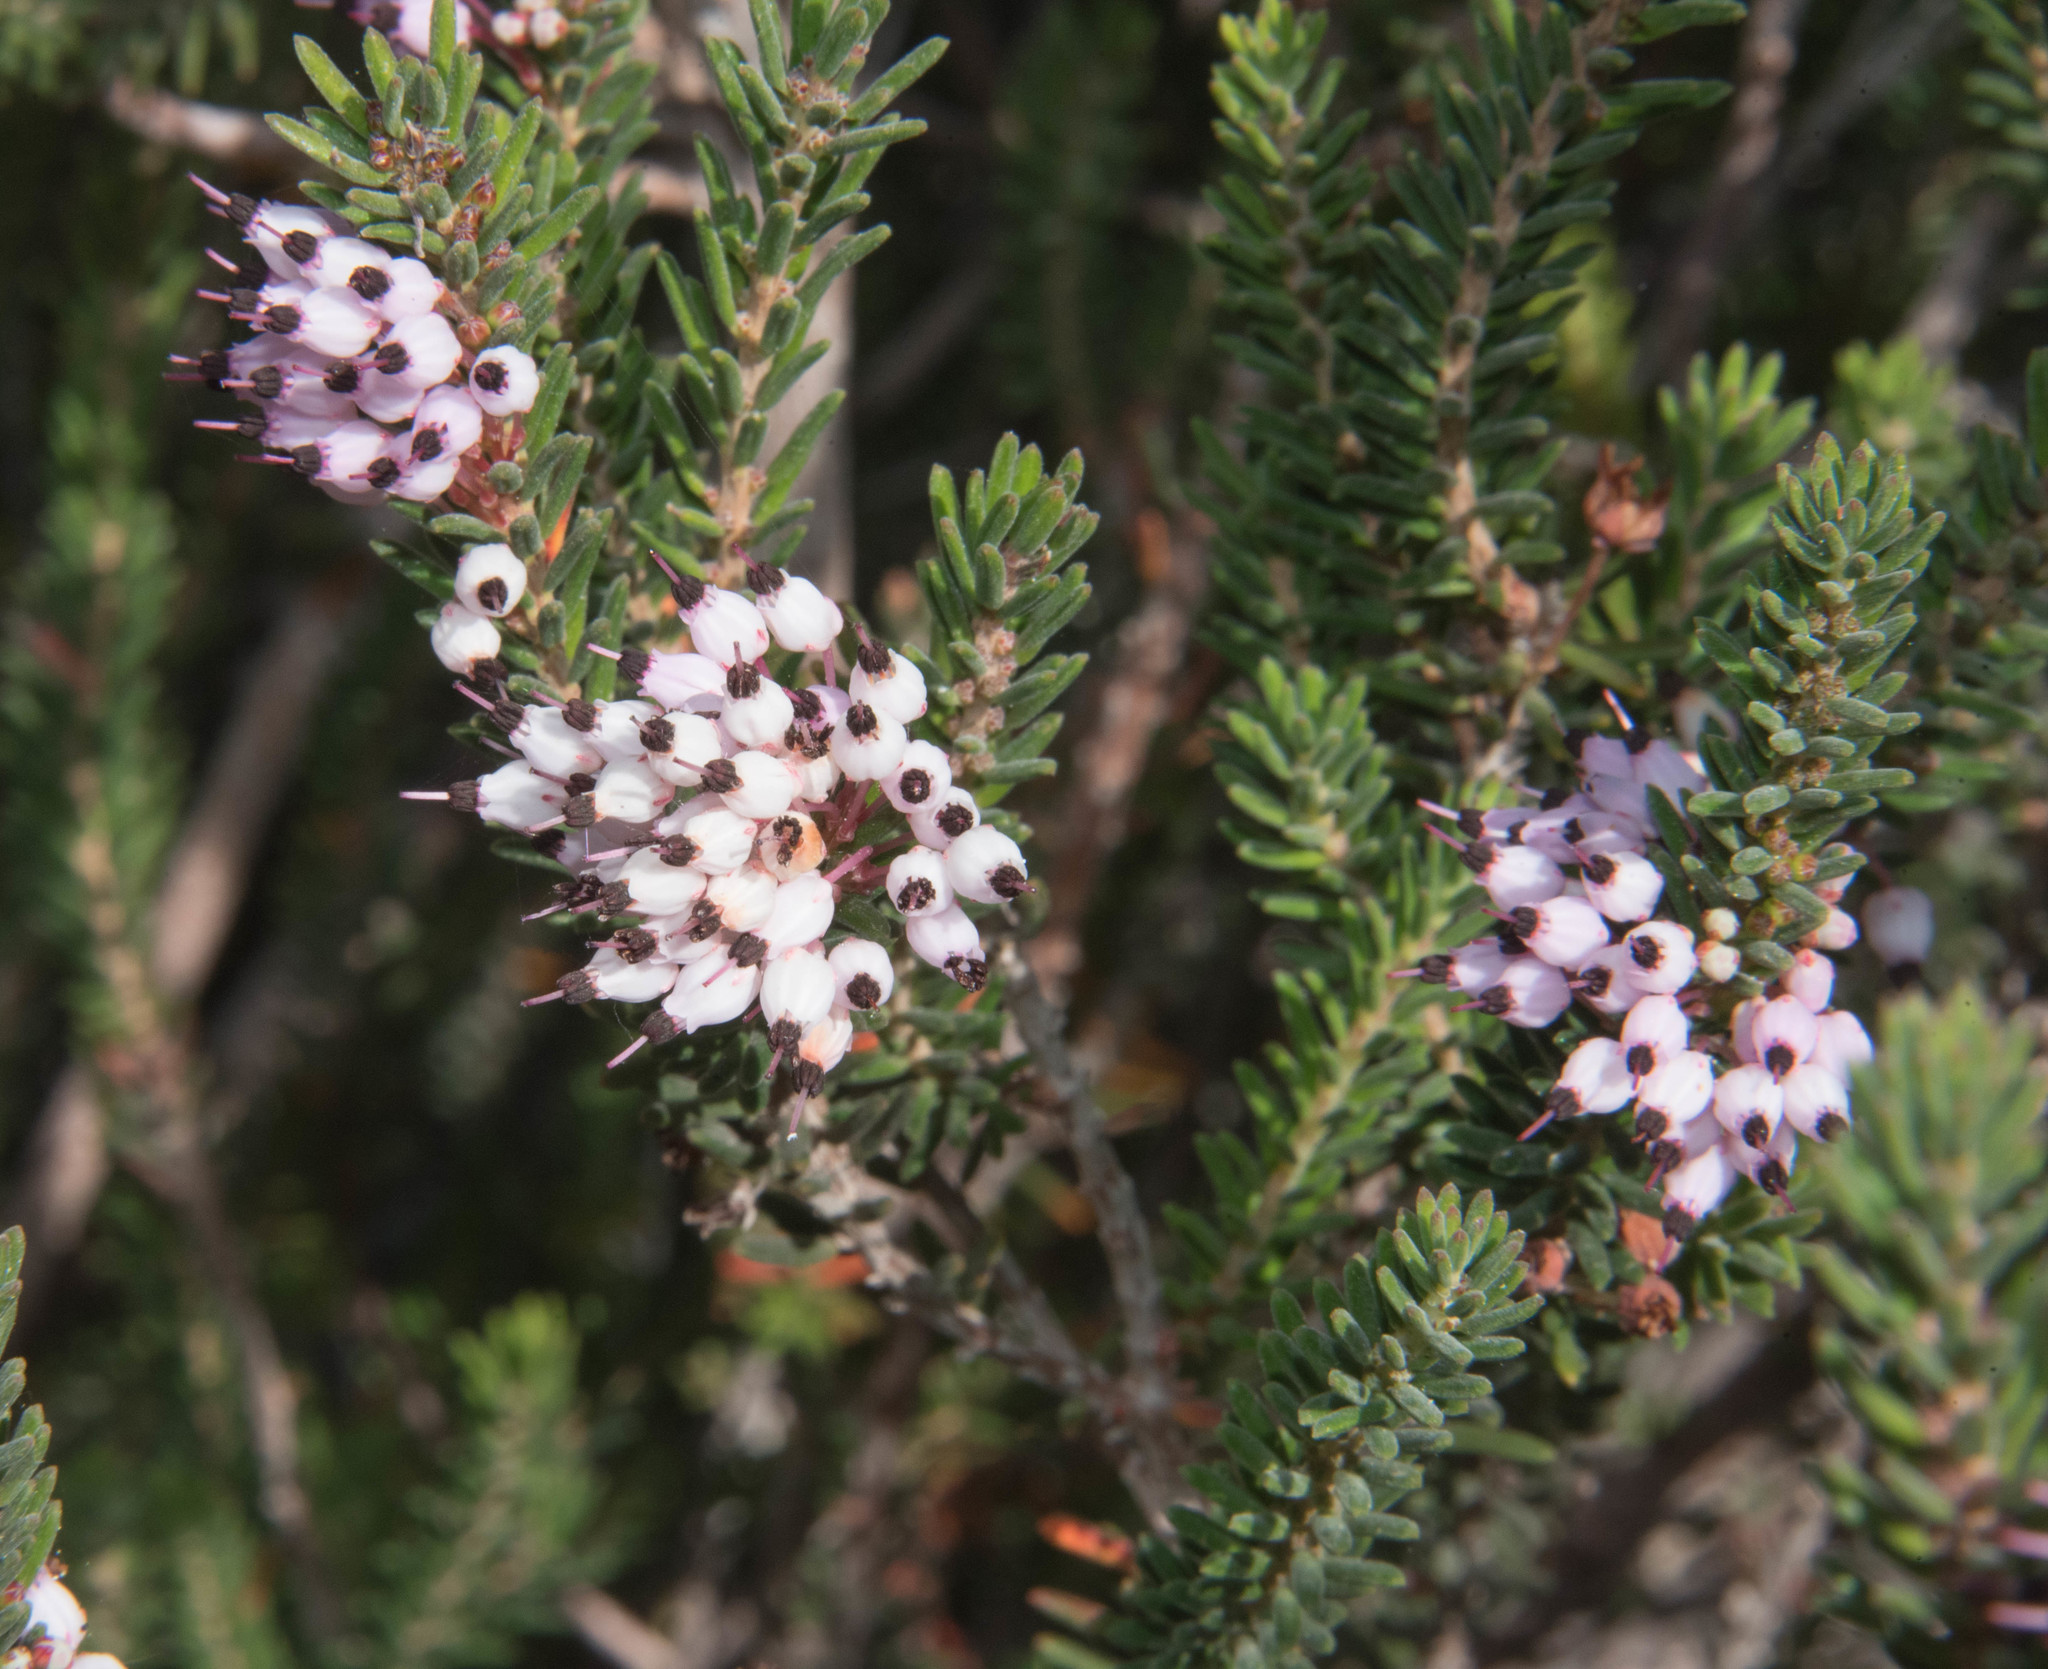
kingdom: Plantae
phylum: Tracheophyta
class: Magnoliopsida
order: Ericales
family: Ericaceae
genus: Erica
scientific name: Erica multiflora
